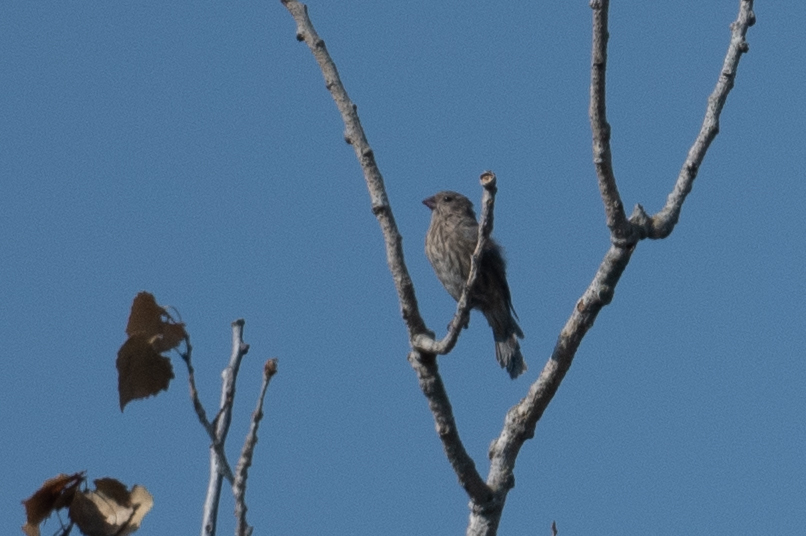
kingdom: Animalia
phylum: Chordata
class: Aves
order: Passeriformes
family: Fringillidae
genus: Haemorhous
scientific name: Haemorhous mexicanus
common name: House finch
